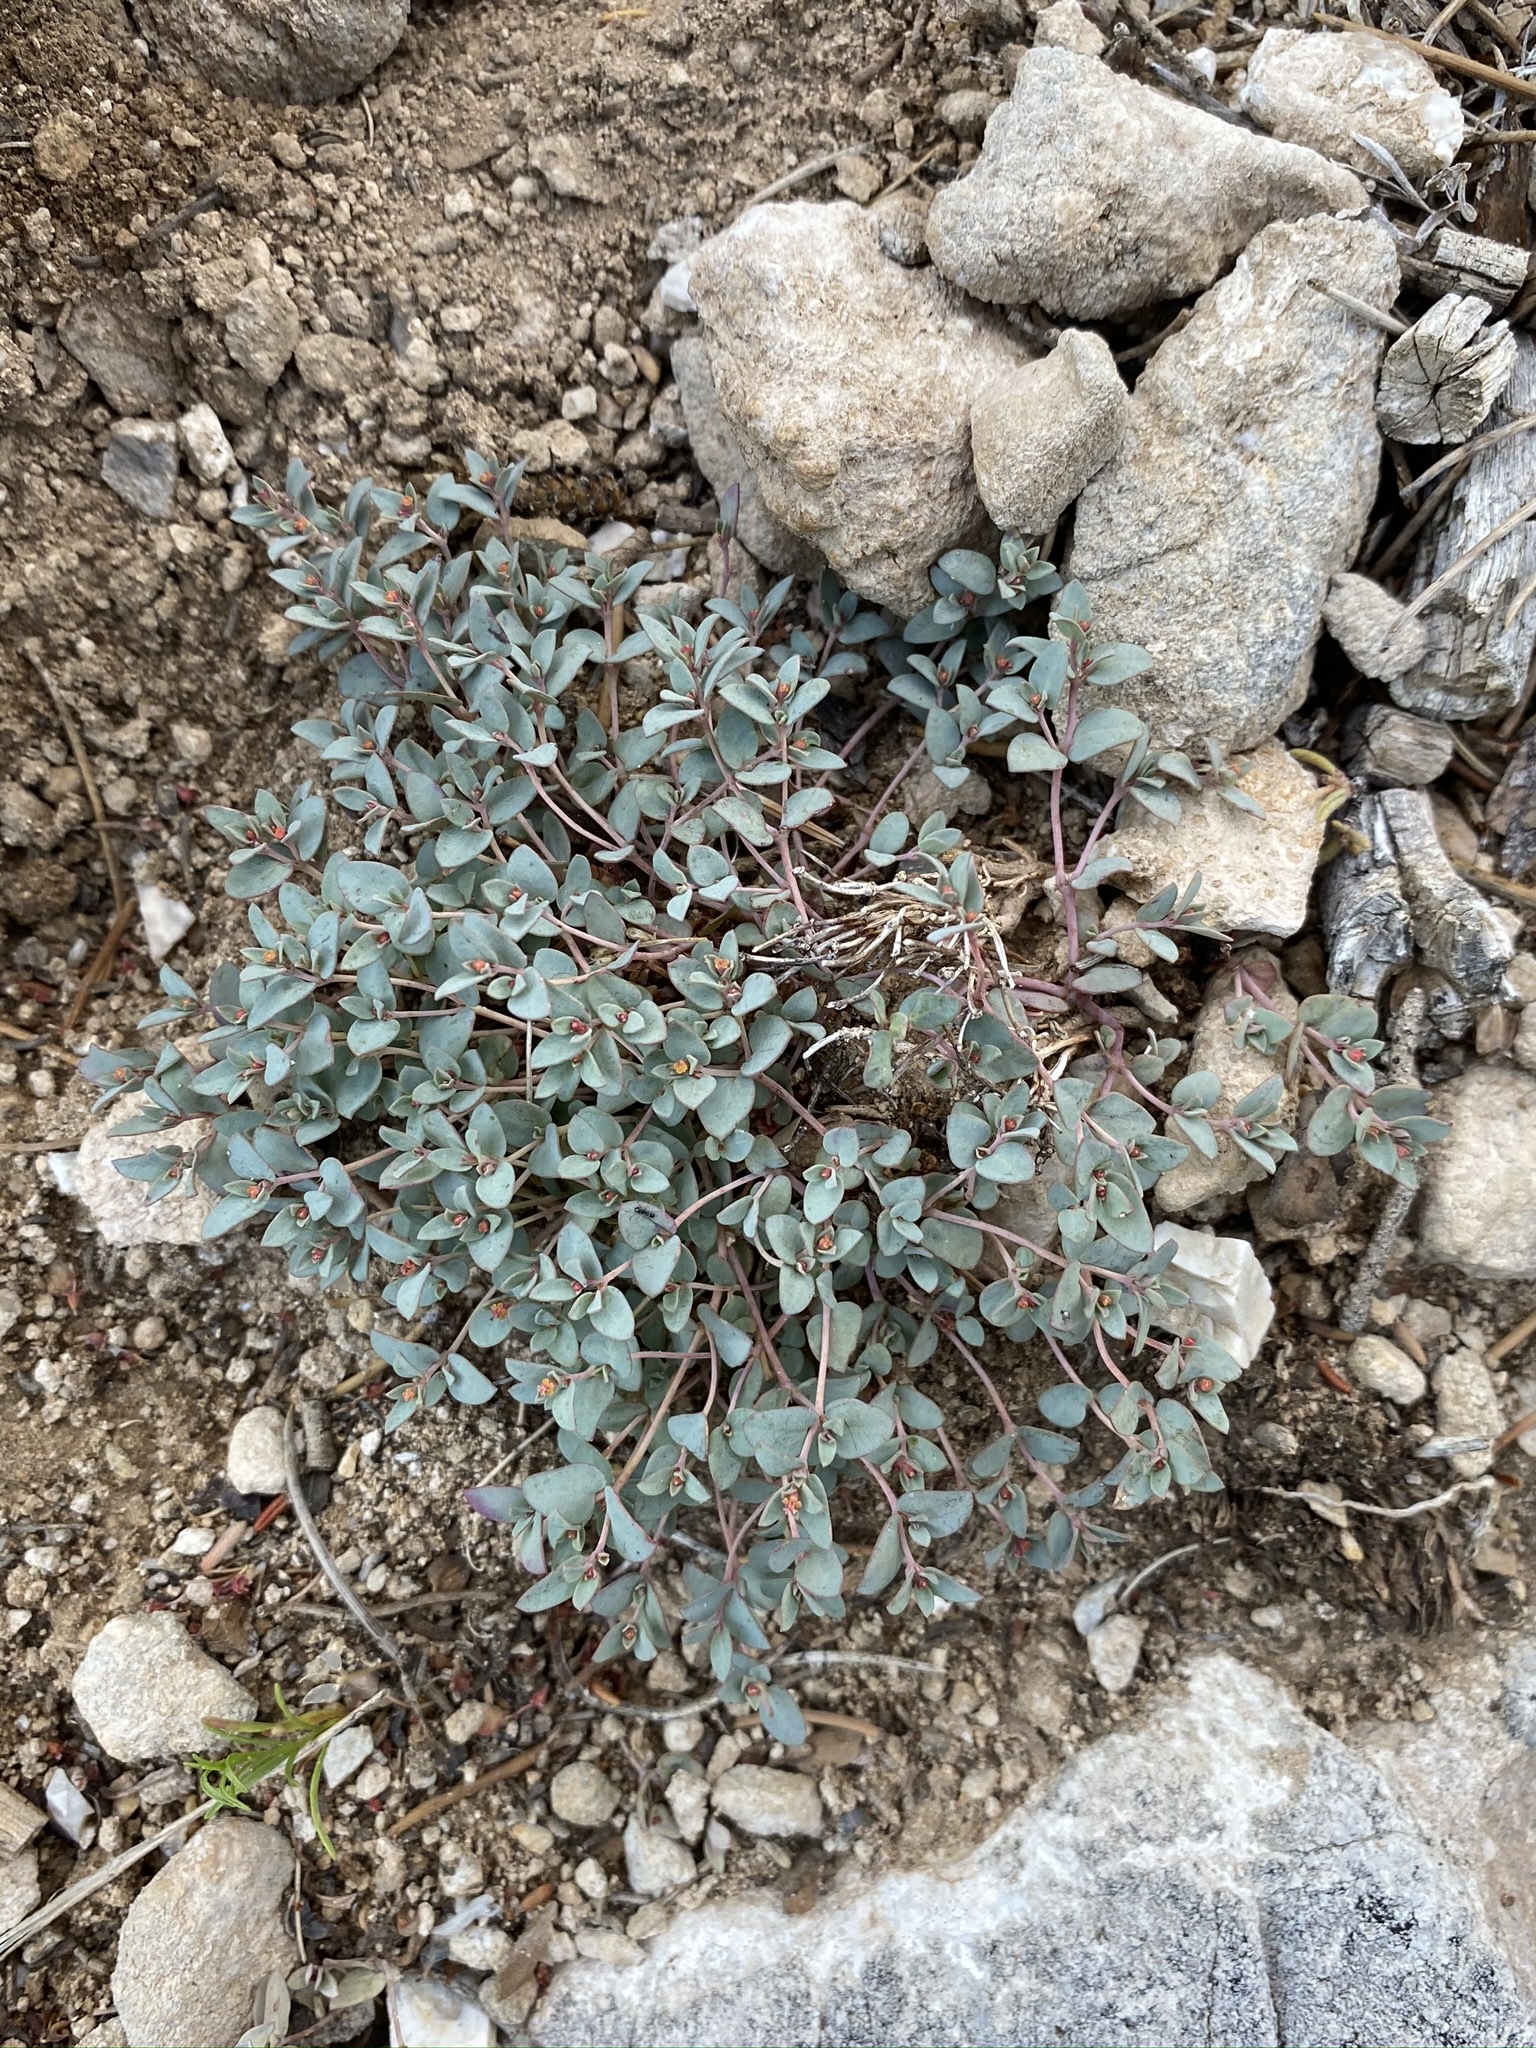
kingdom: Plantae
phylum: Tracheophyta
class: Magnoliopsida
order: Malpighiales
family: Euphorbiaceae
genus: Euphorbia
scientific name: Euphorbia fendleri
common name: Fendler's euphorbia
